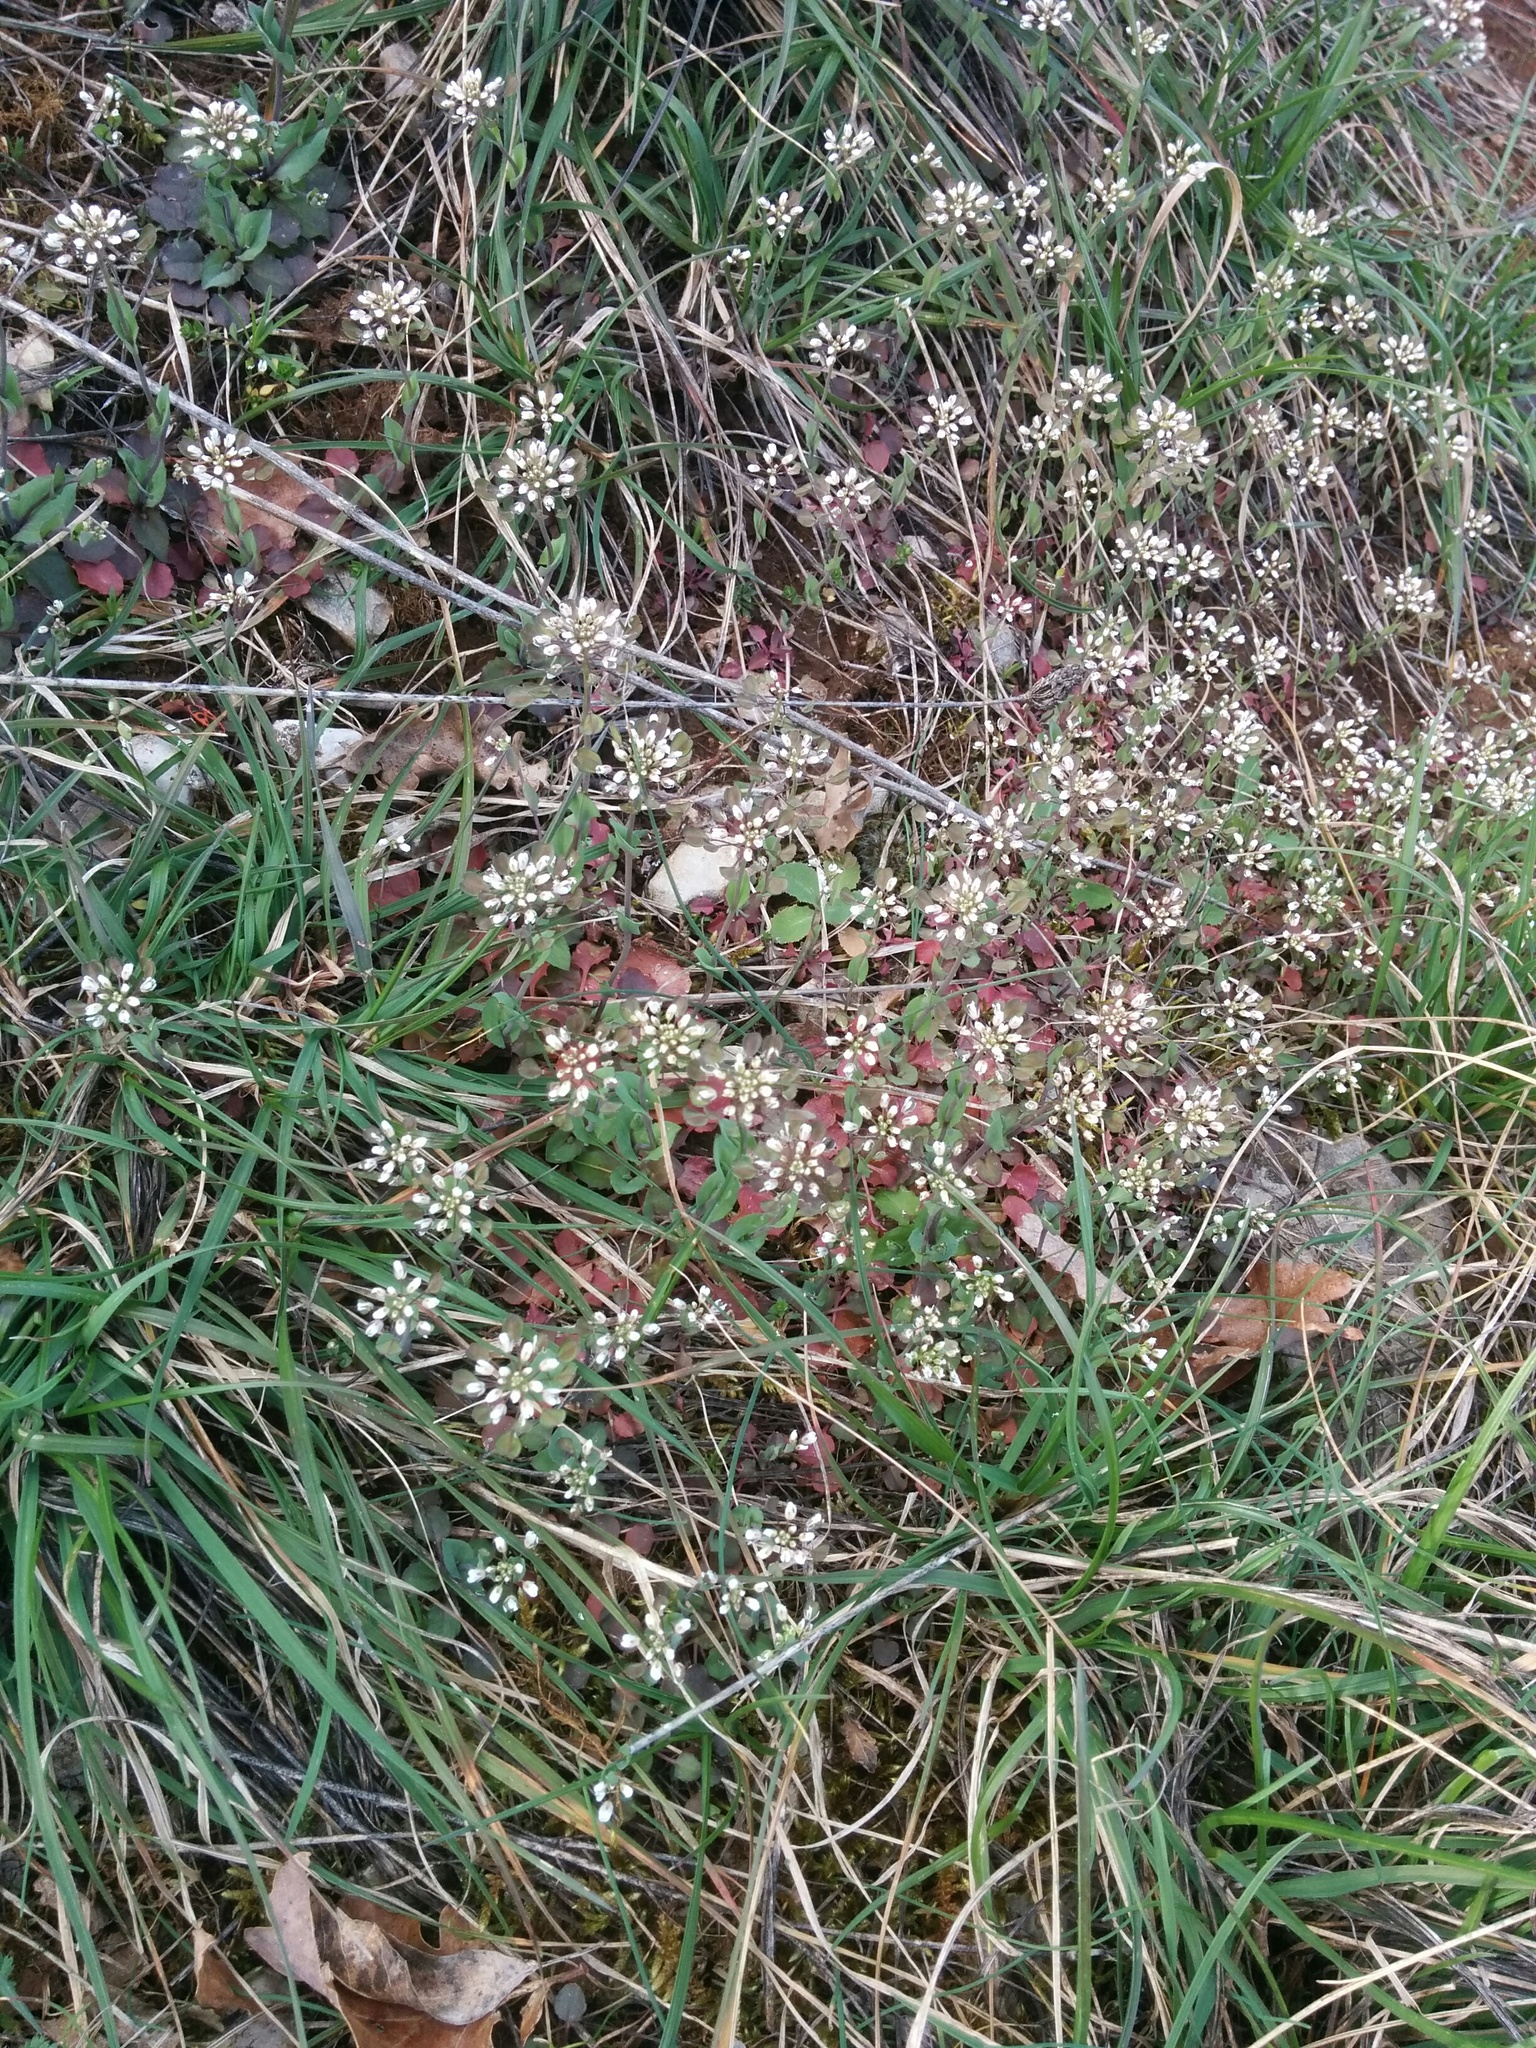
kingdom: Plantae
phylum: Tracheophyta
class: Magnoliopsida
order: Brassicales
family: Brassicaceae
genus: Noccaea
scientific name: Noccaea perfoliata
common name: Perfoliate pennycress
